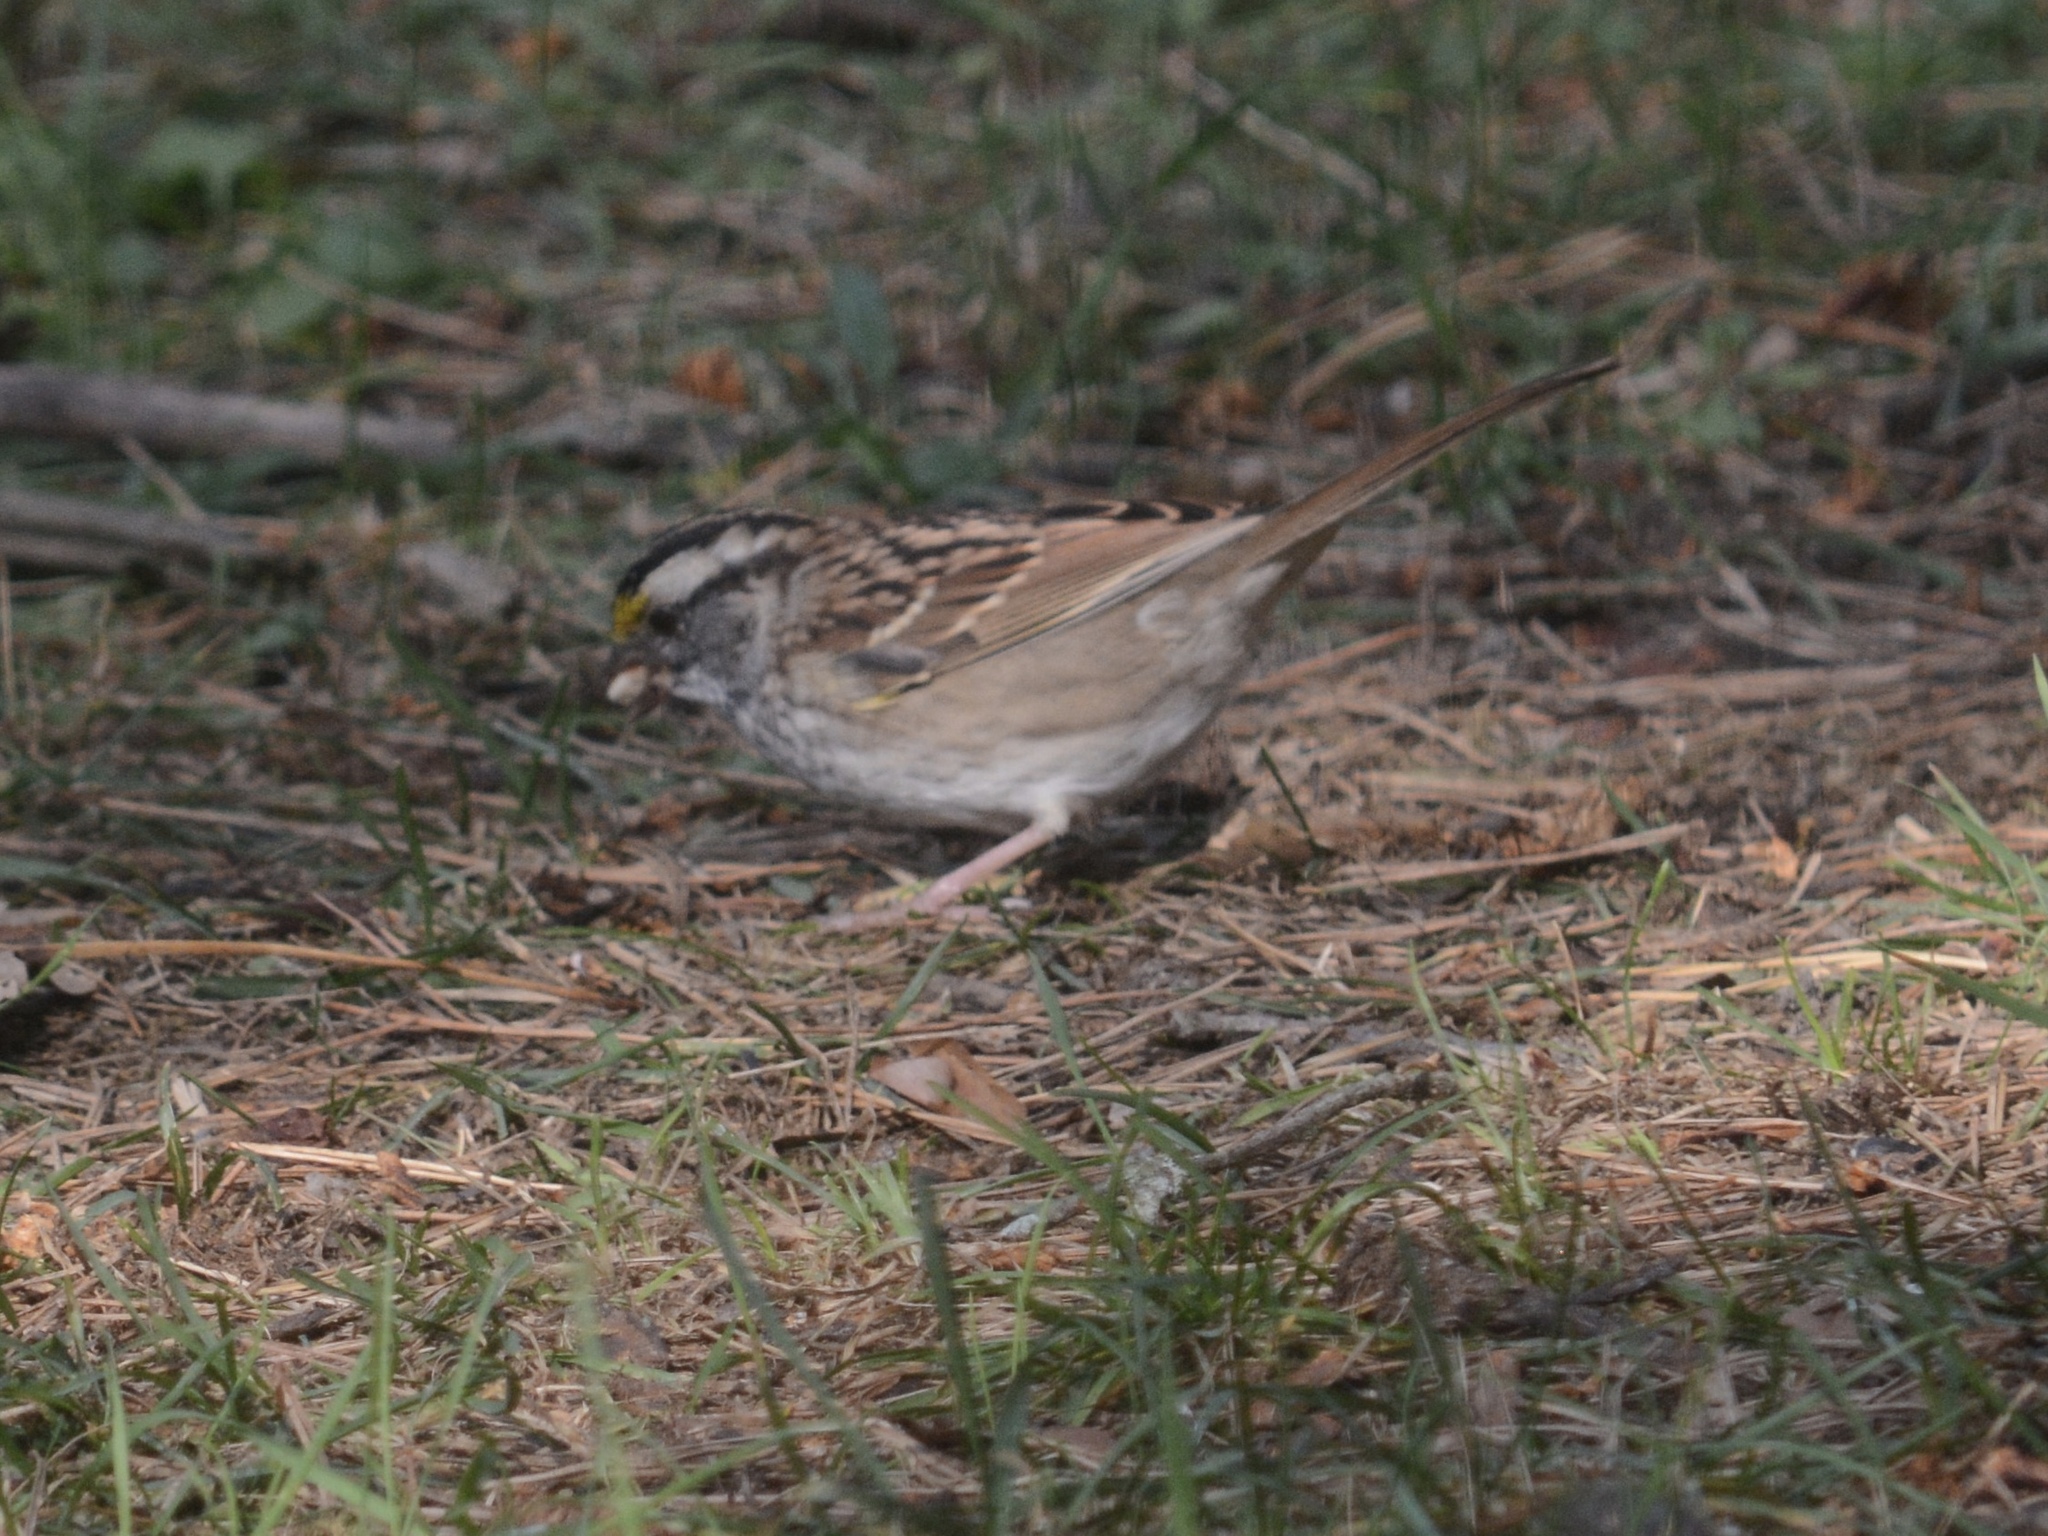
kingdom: Animalia
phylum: Chordata
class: Aves
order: Passeriformes
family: Passerellidae
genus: Zonotrichia
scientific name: Zonotrichia albicollis
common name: White-throated sparrow
